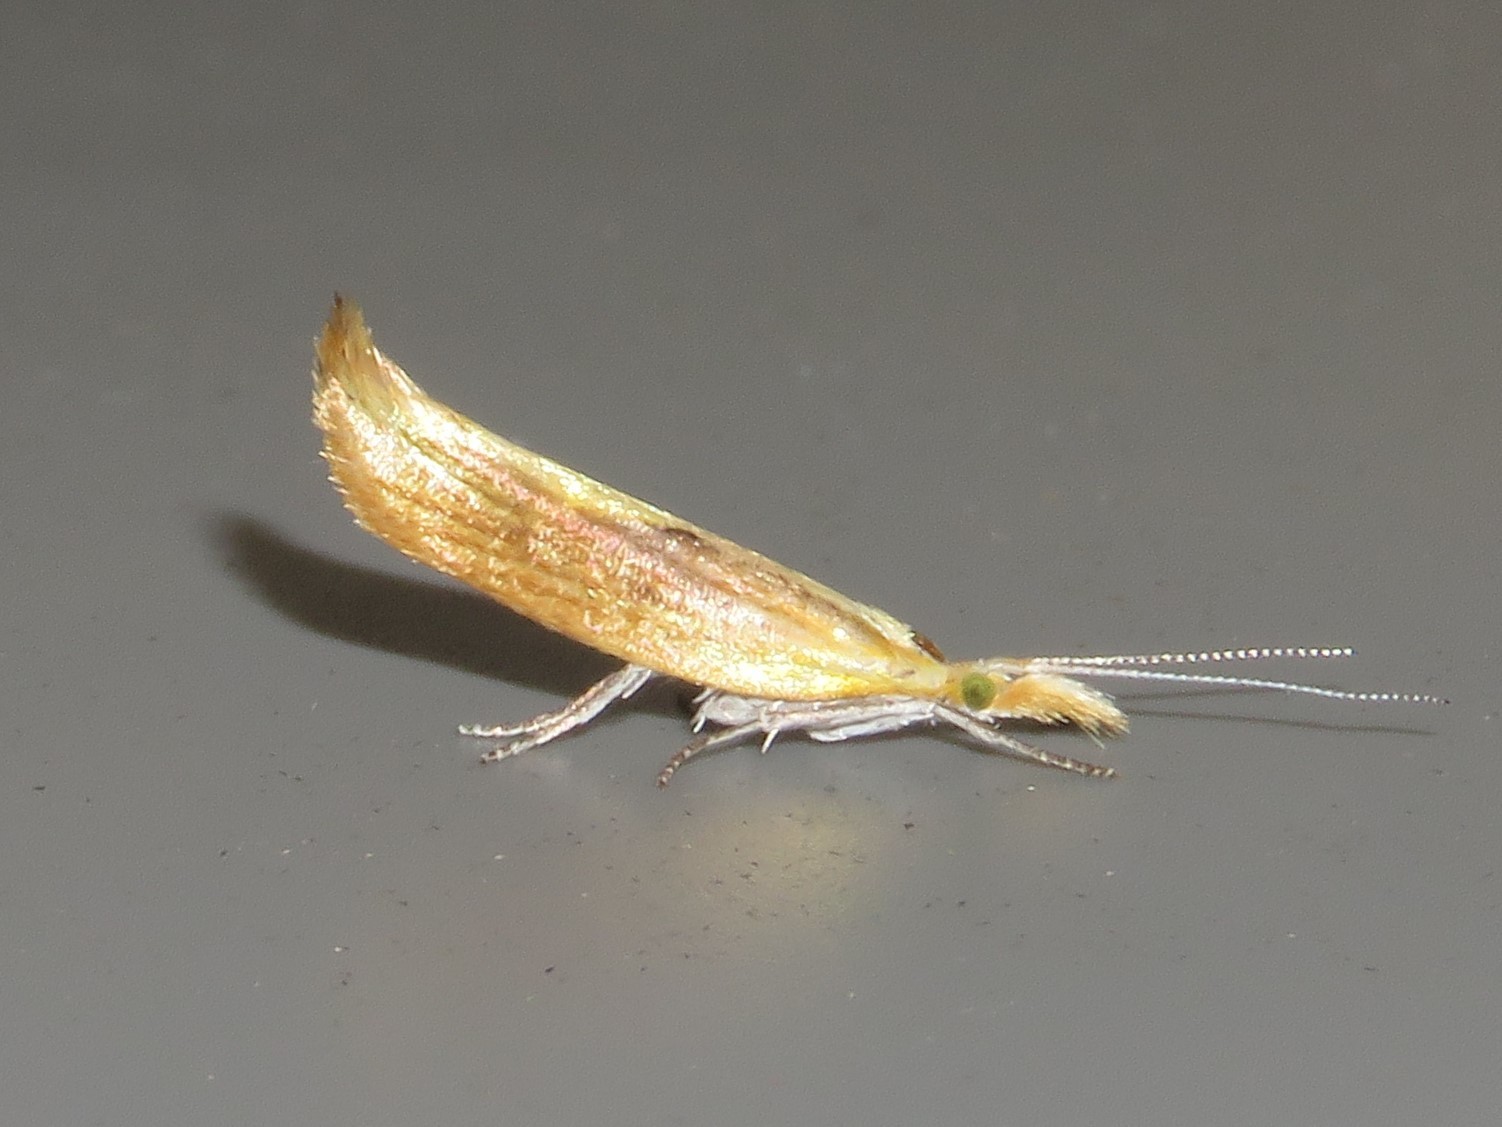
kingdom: Animalia
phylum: Arthropoda
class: Insecta
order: Lepidoptera
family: Ypsolophidae
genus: Ypsolopha
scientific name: Ypsolopha canariella
